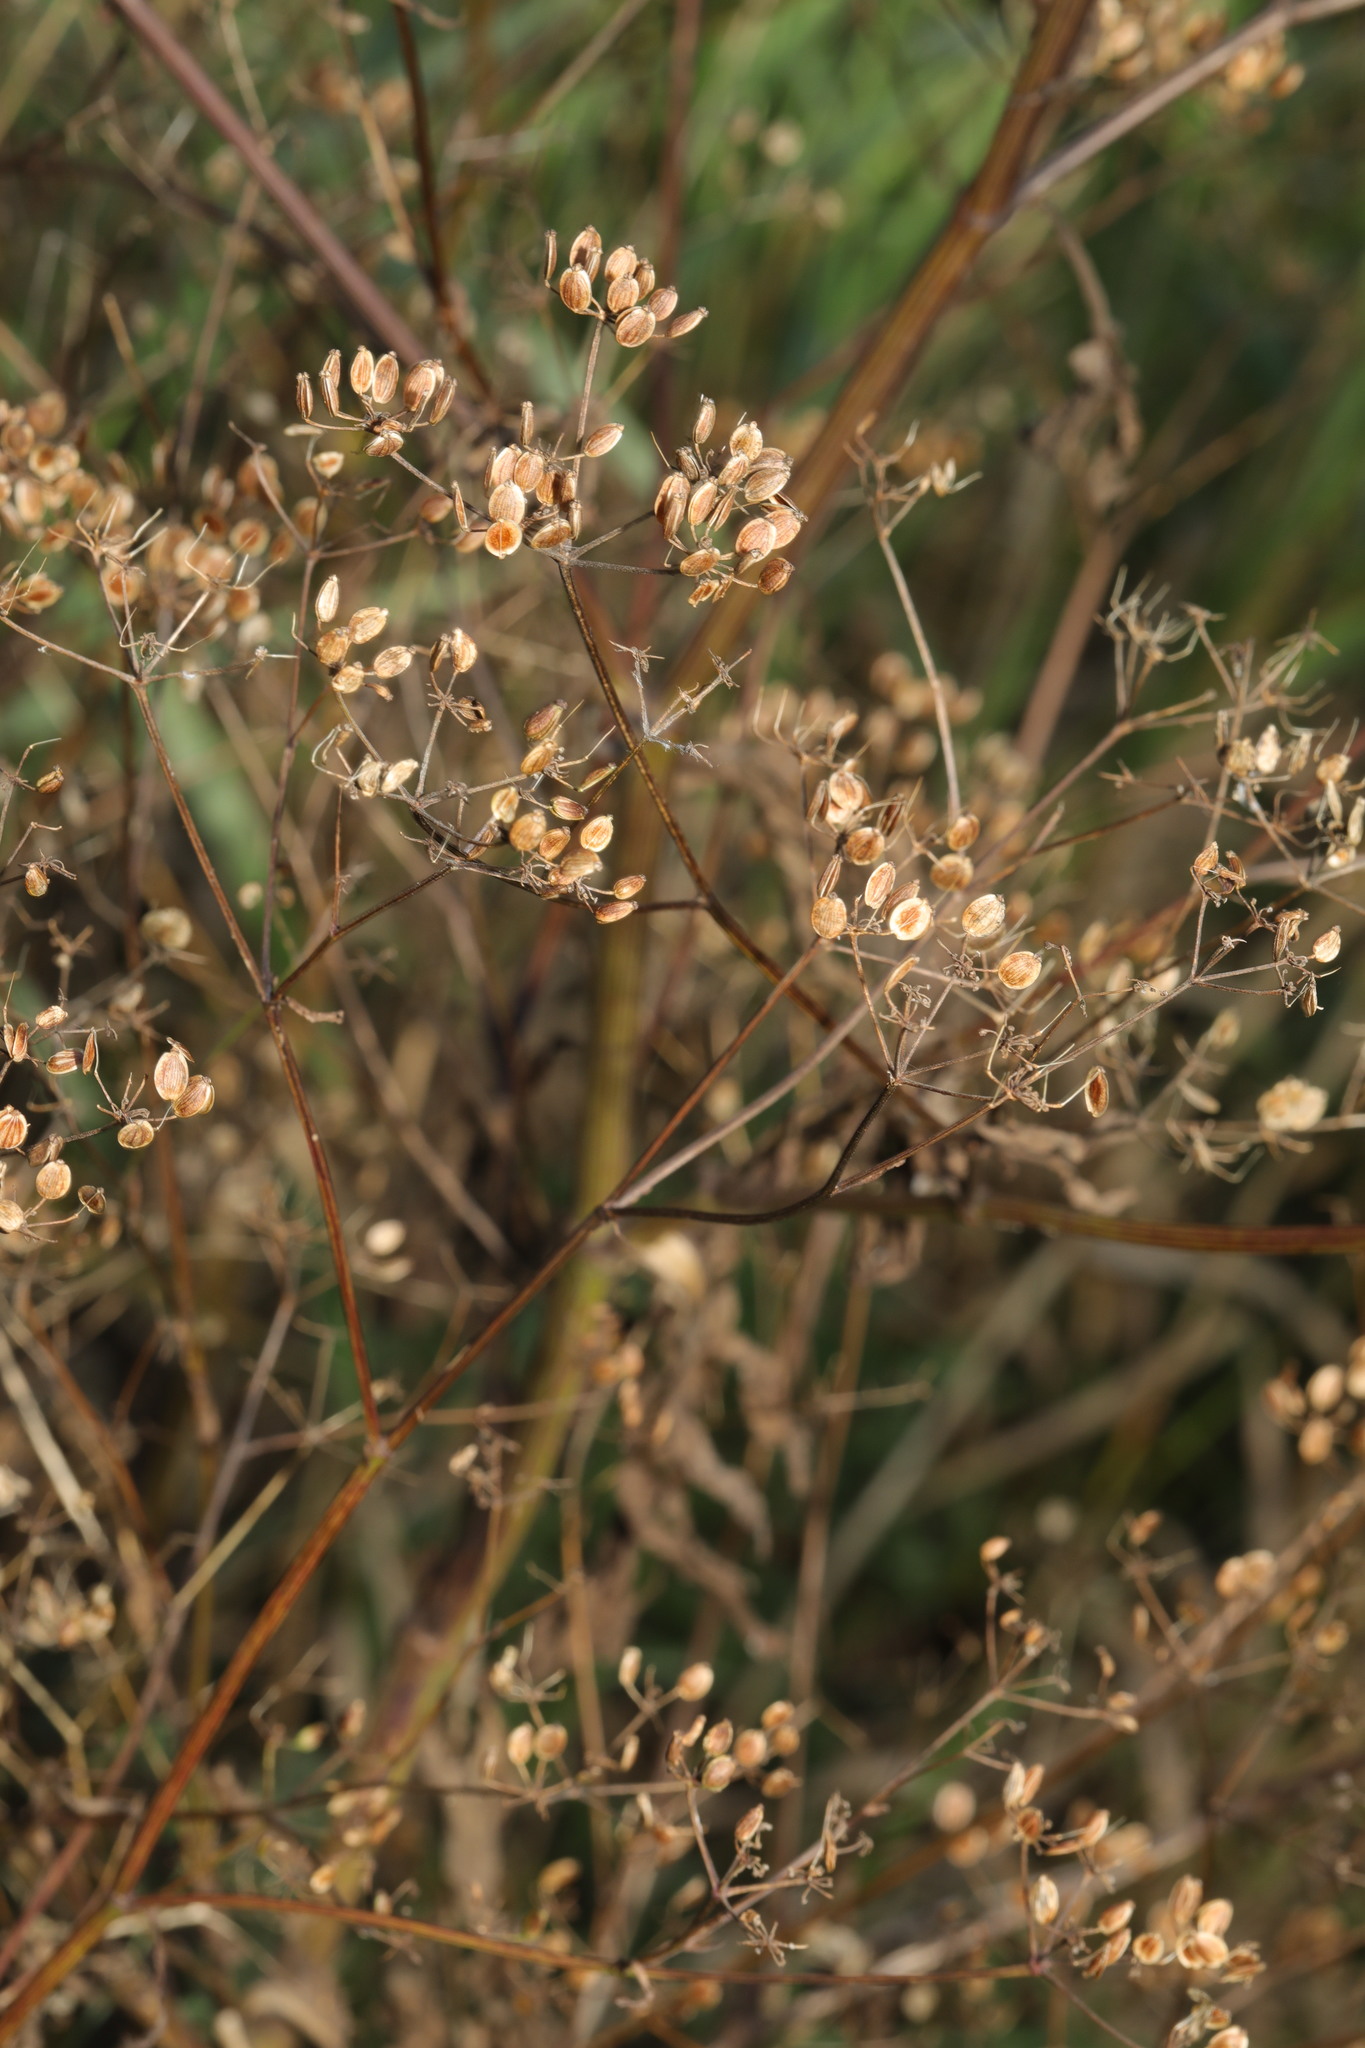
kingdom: Plantae
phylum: Tracheophyta
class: Magnoliopsida
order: Apiales
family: Apiaceae
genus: Pastinaca
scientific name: Pastinaca sativa
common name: Wild parsnip
